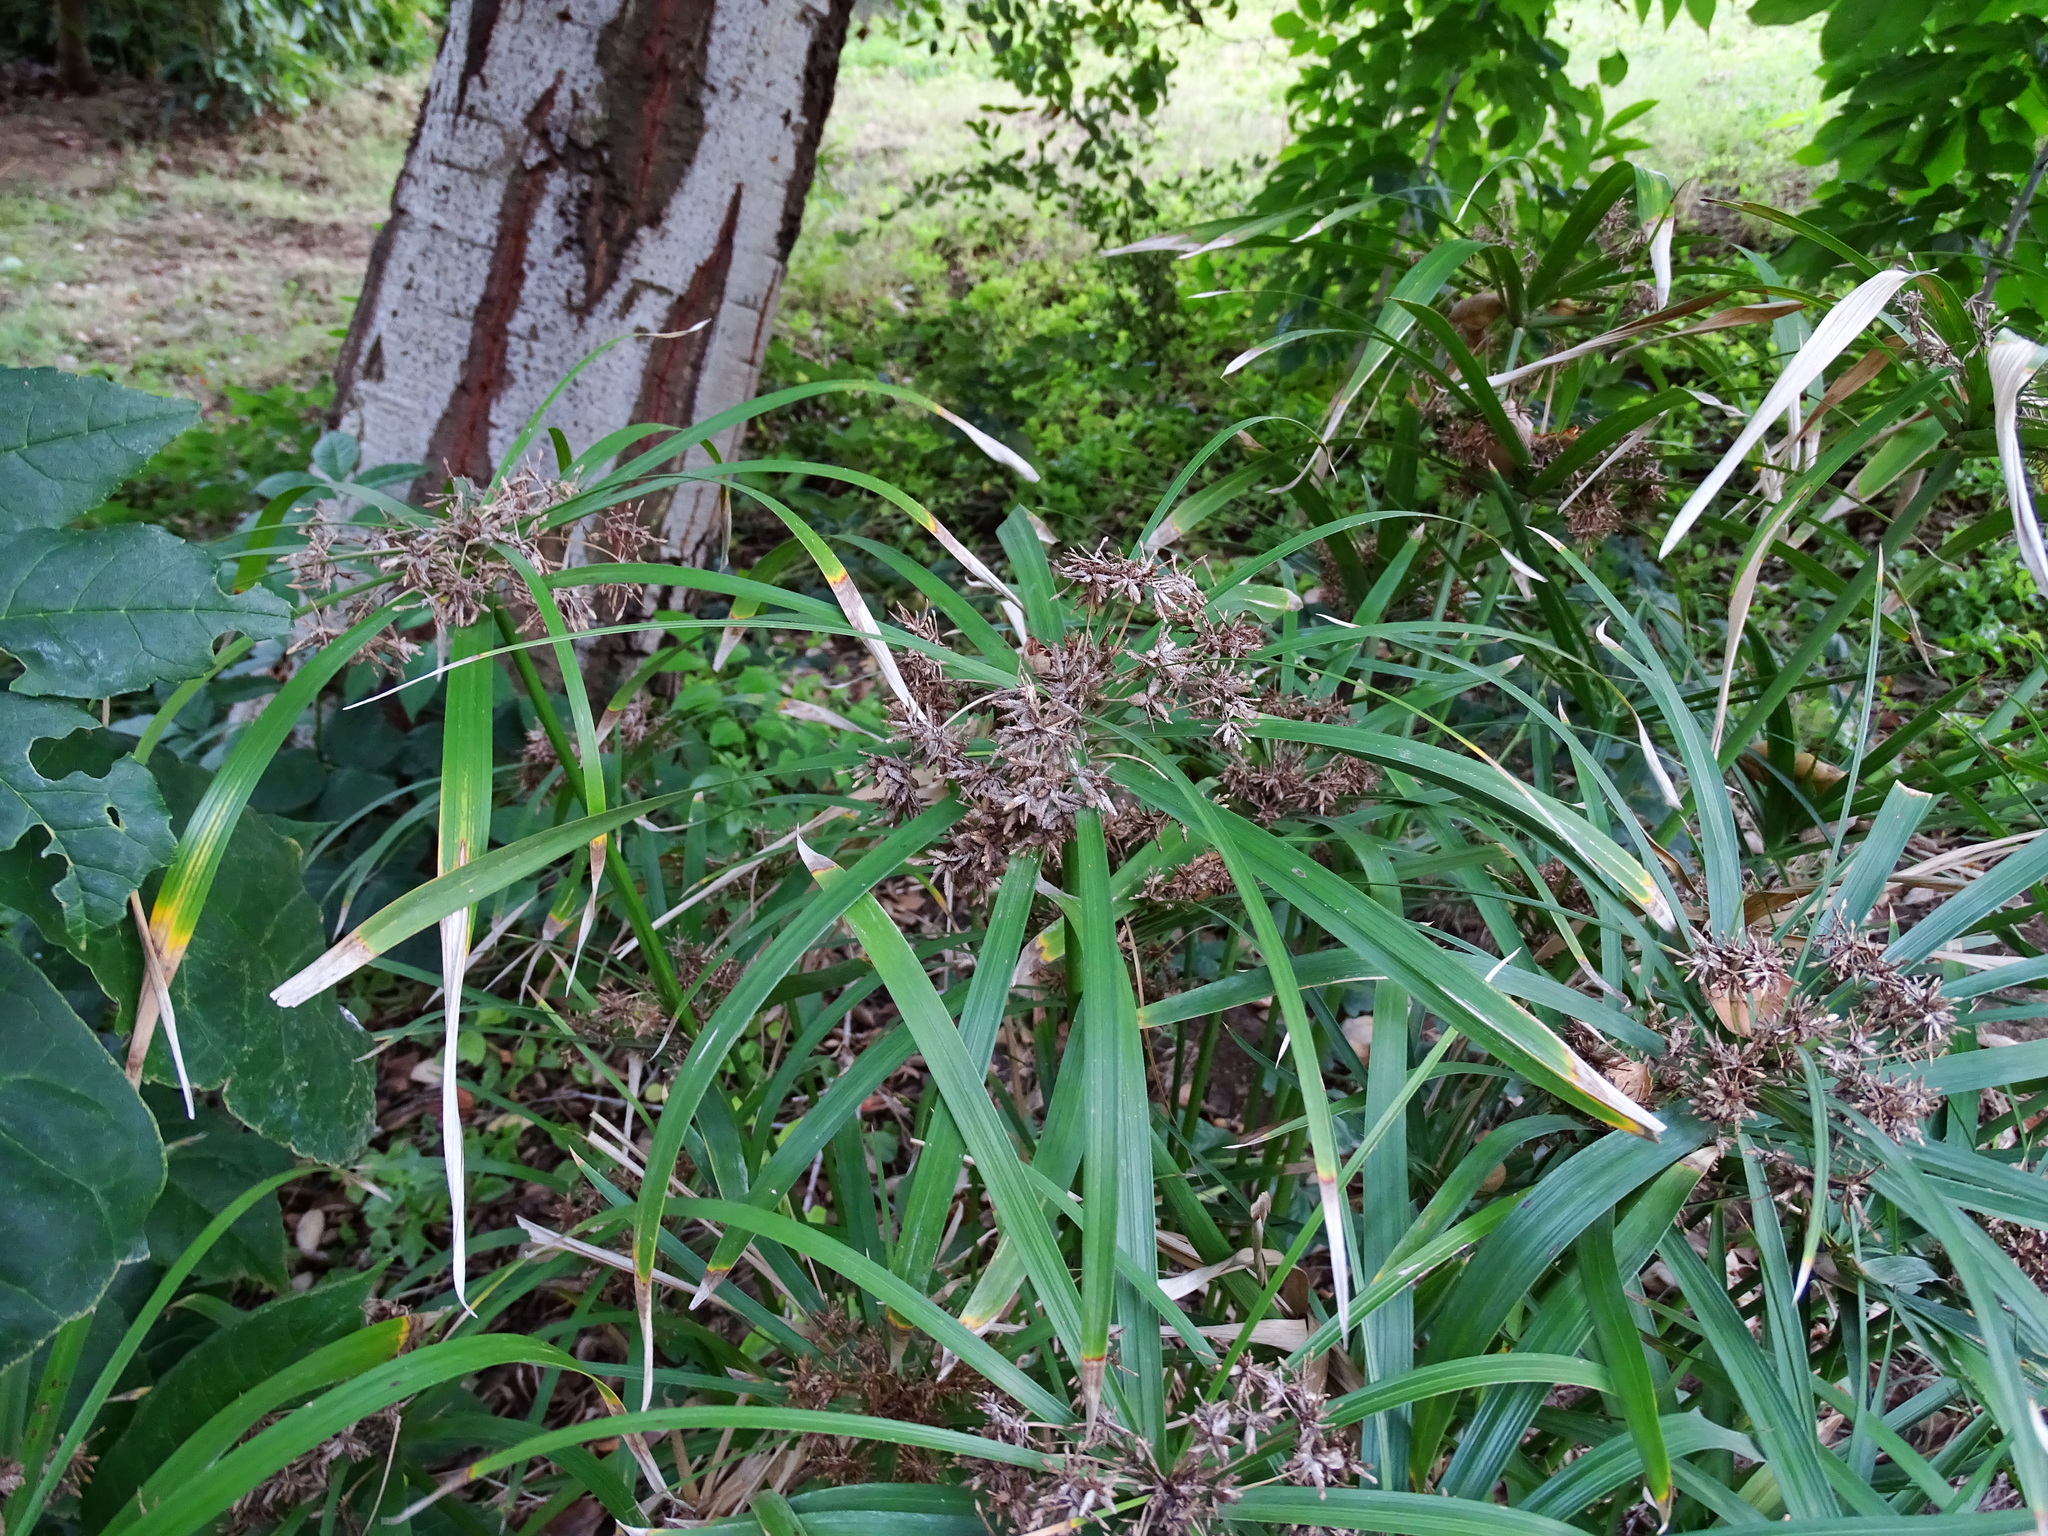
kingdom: Plantae
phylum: Tracheophyta
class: Liliopsida
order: Poales
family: Cyperaceae
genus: Cyperus
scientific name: Cyperus alternifolius
